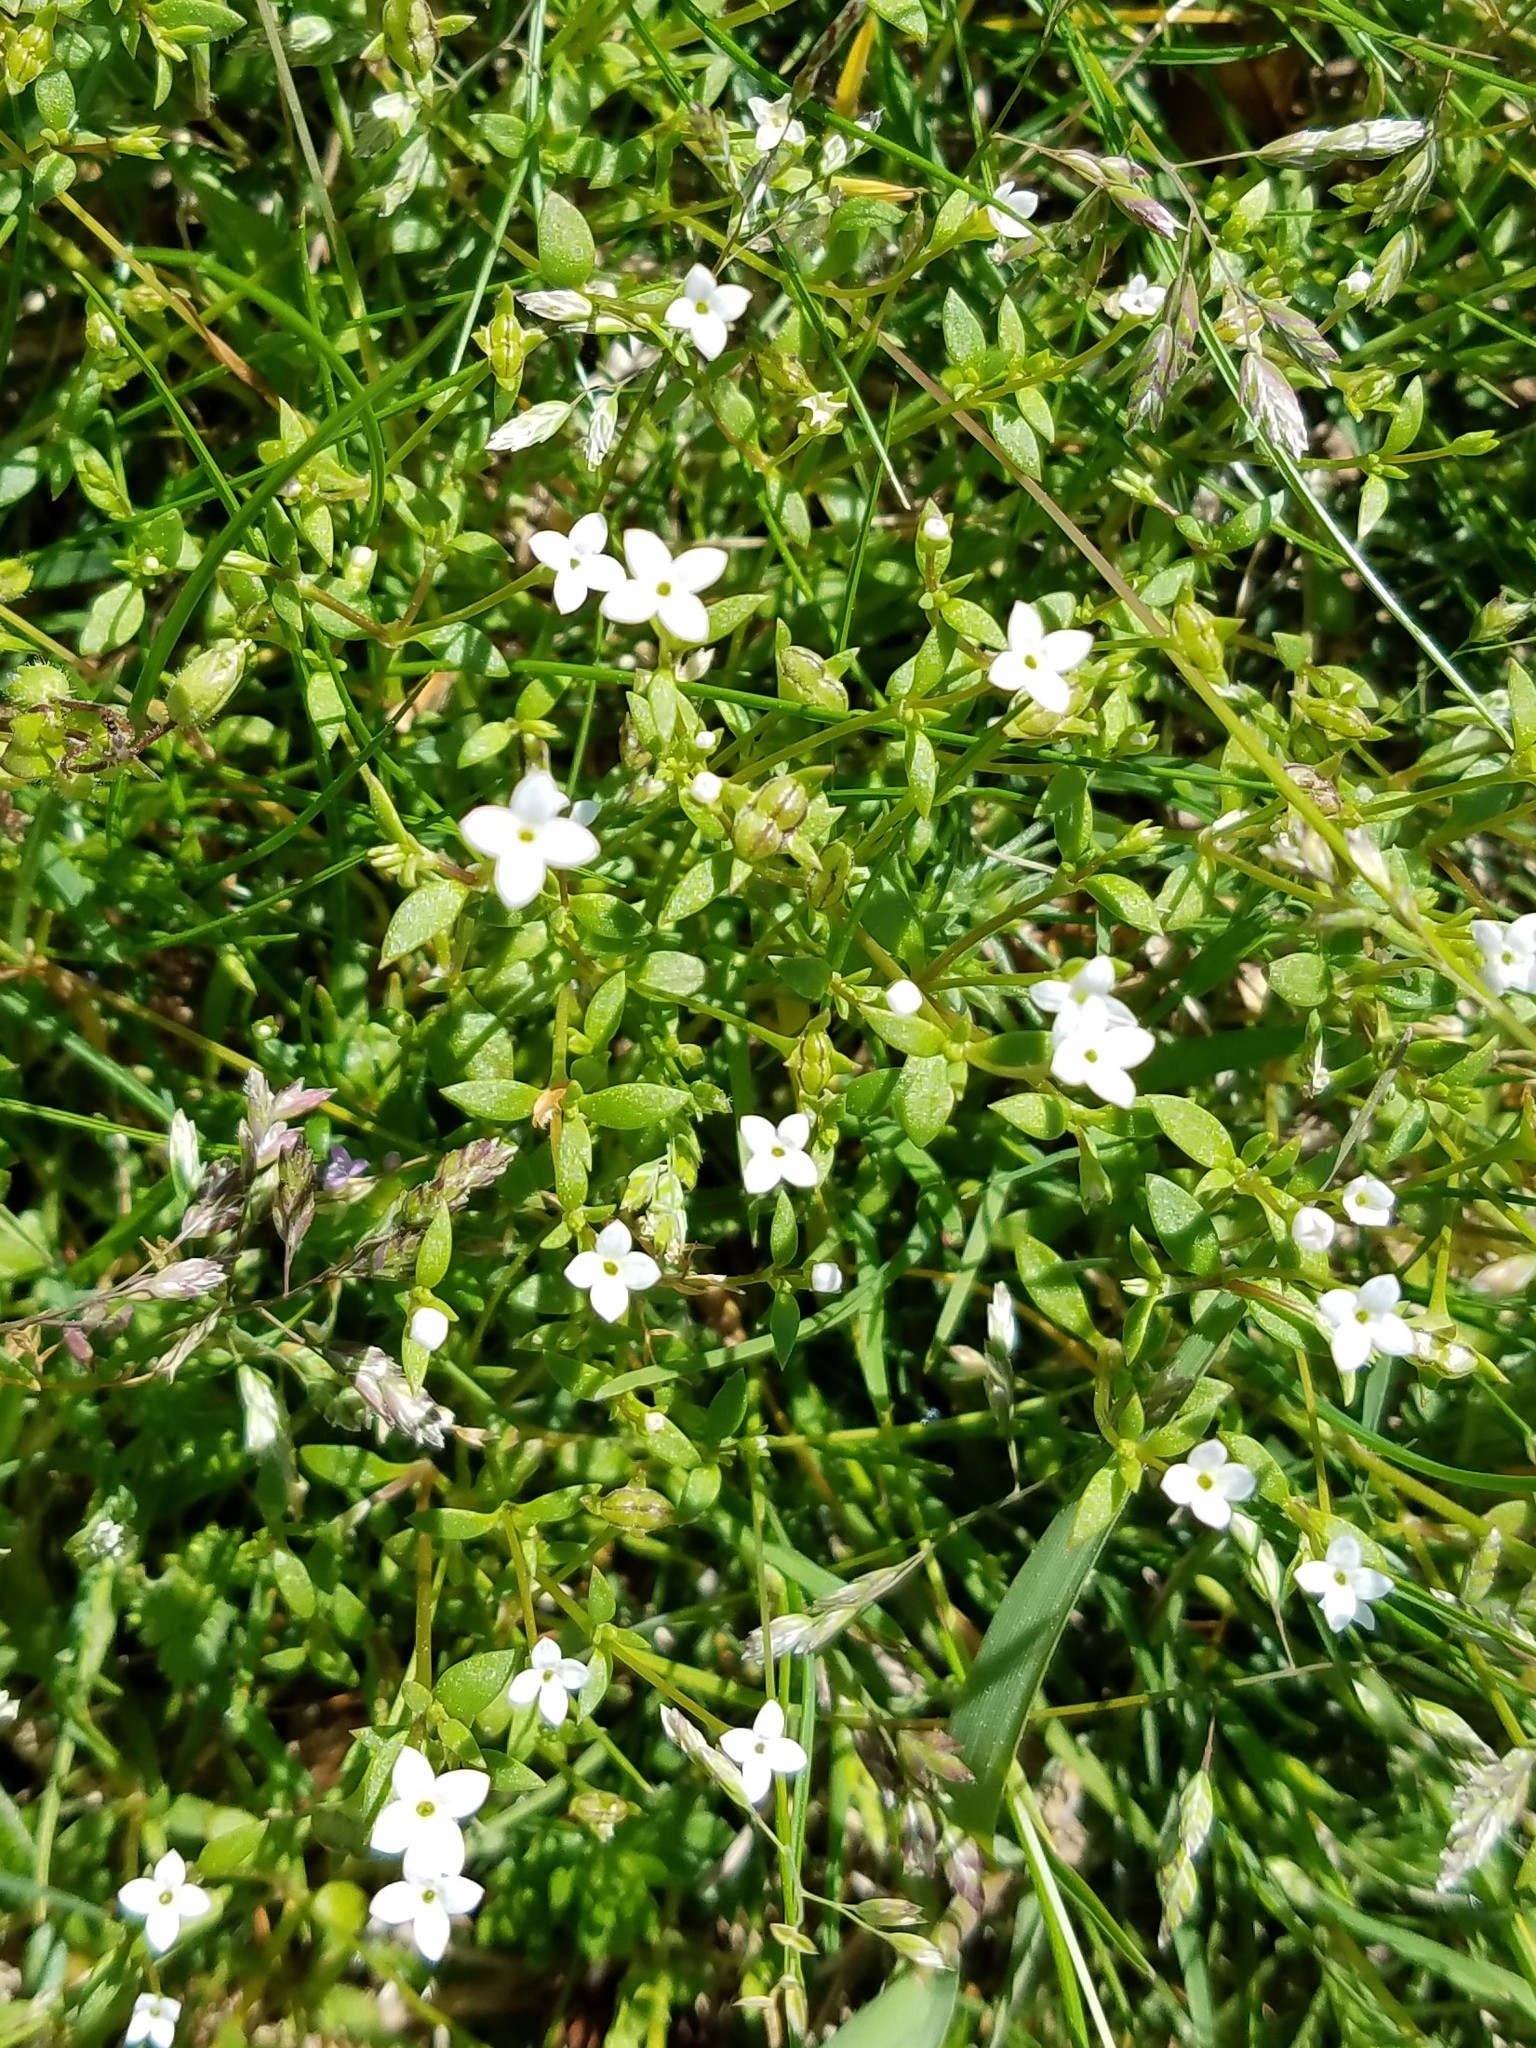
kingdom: Plantae
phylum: Tracheophyta
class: Magnoliopsida
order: Gentianales
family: Rubiaceae
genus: Houstonia
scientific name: Houstonia micrantha
